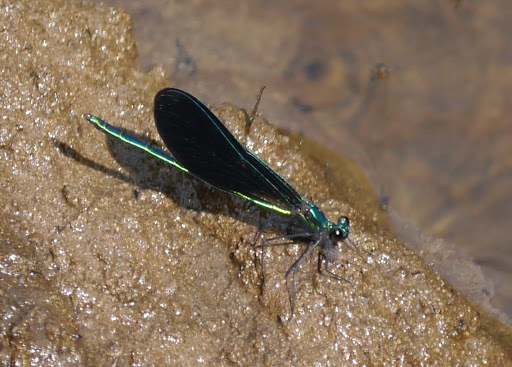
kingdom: Animalia
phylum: Arthropoda
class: Insecta
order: Odonata
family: Calopterygidae
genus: Calopteryx
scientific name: Calopteryx maculata
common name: Ebony jewelwing
